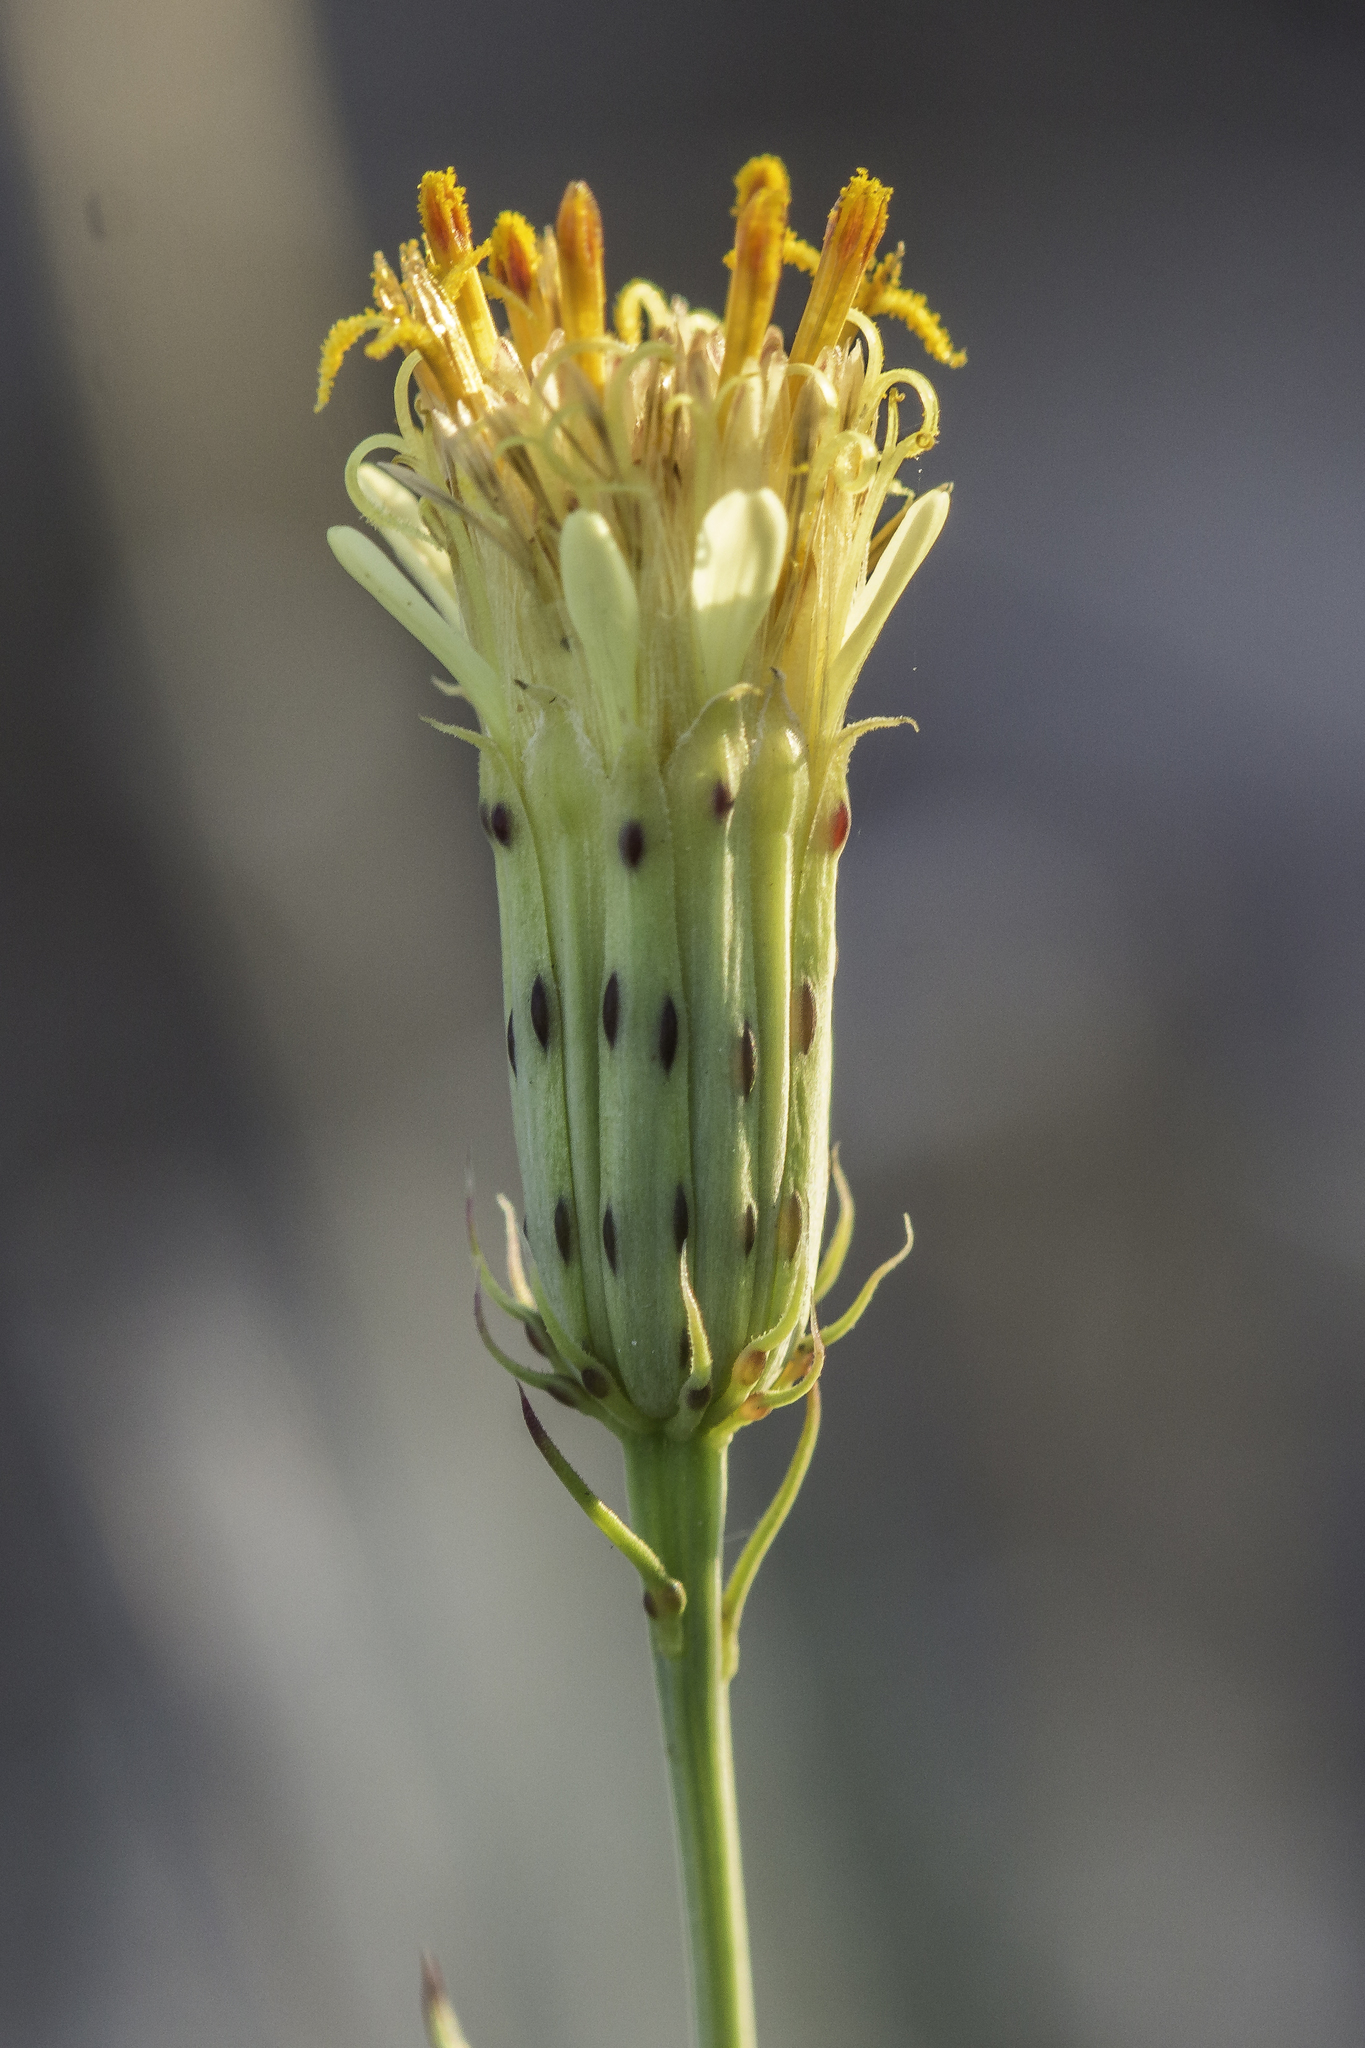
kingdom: Plantae
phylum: Tracheophyta
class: Magnoliopsida
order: Asterales
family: Asteraceae
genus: Adenophyllum
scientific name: Adenophyllum porophylloides
